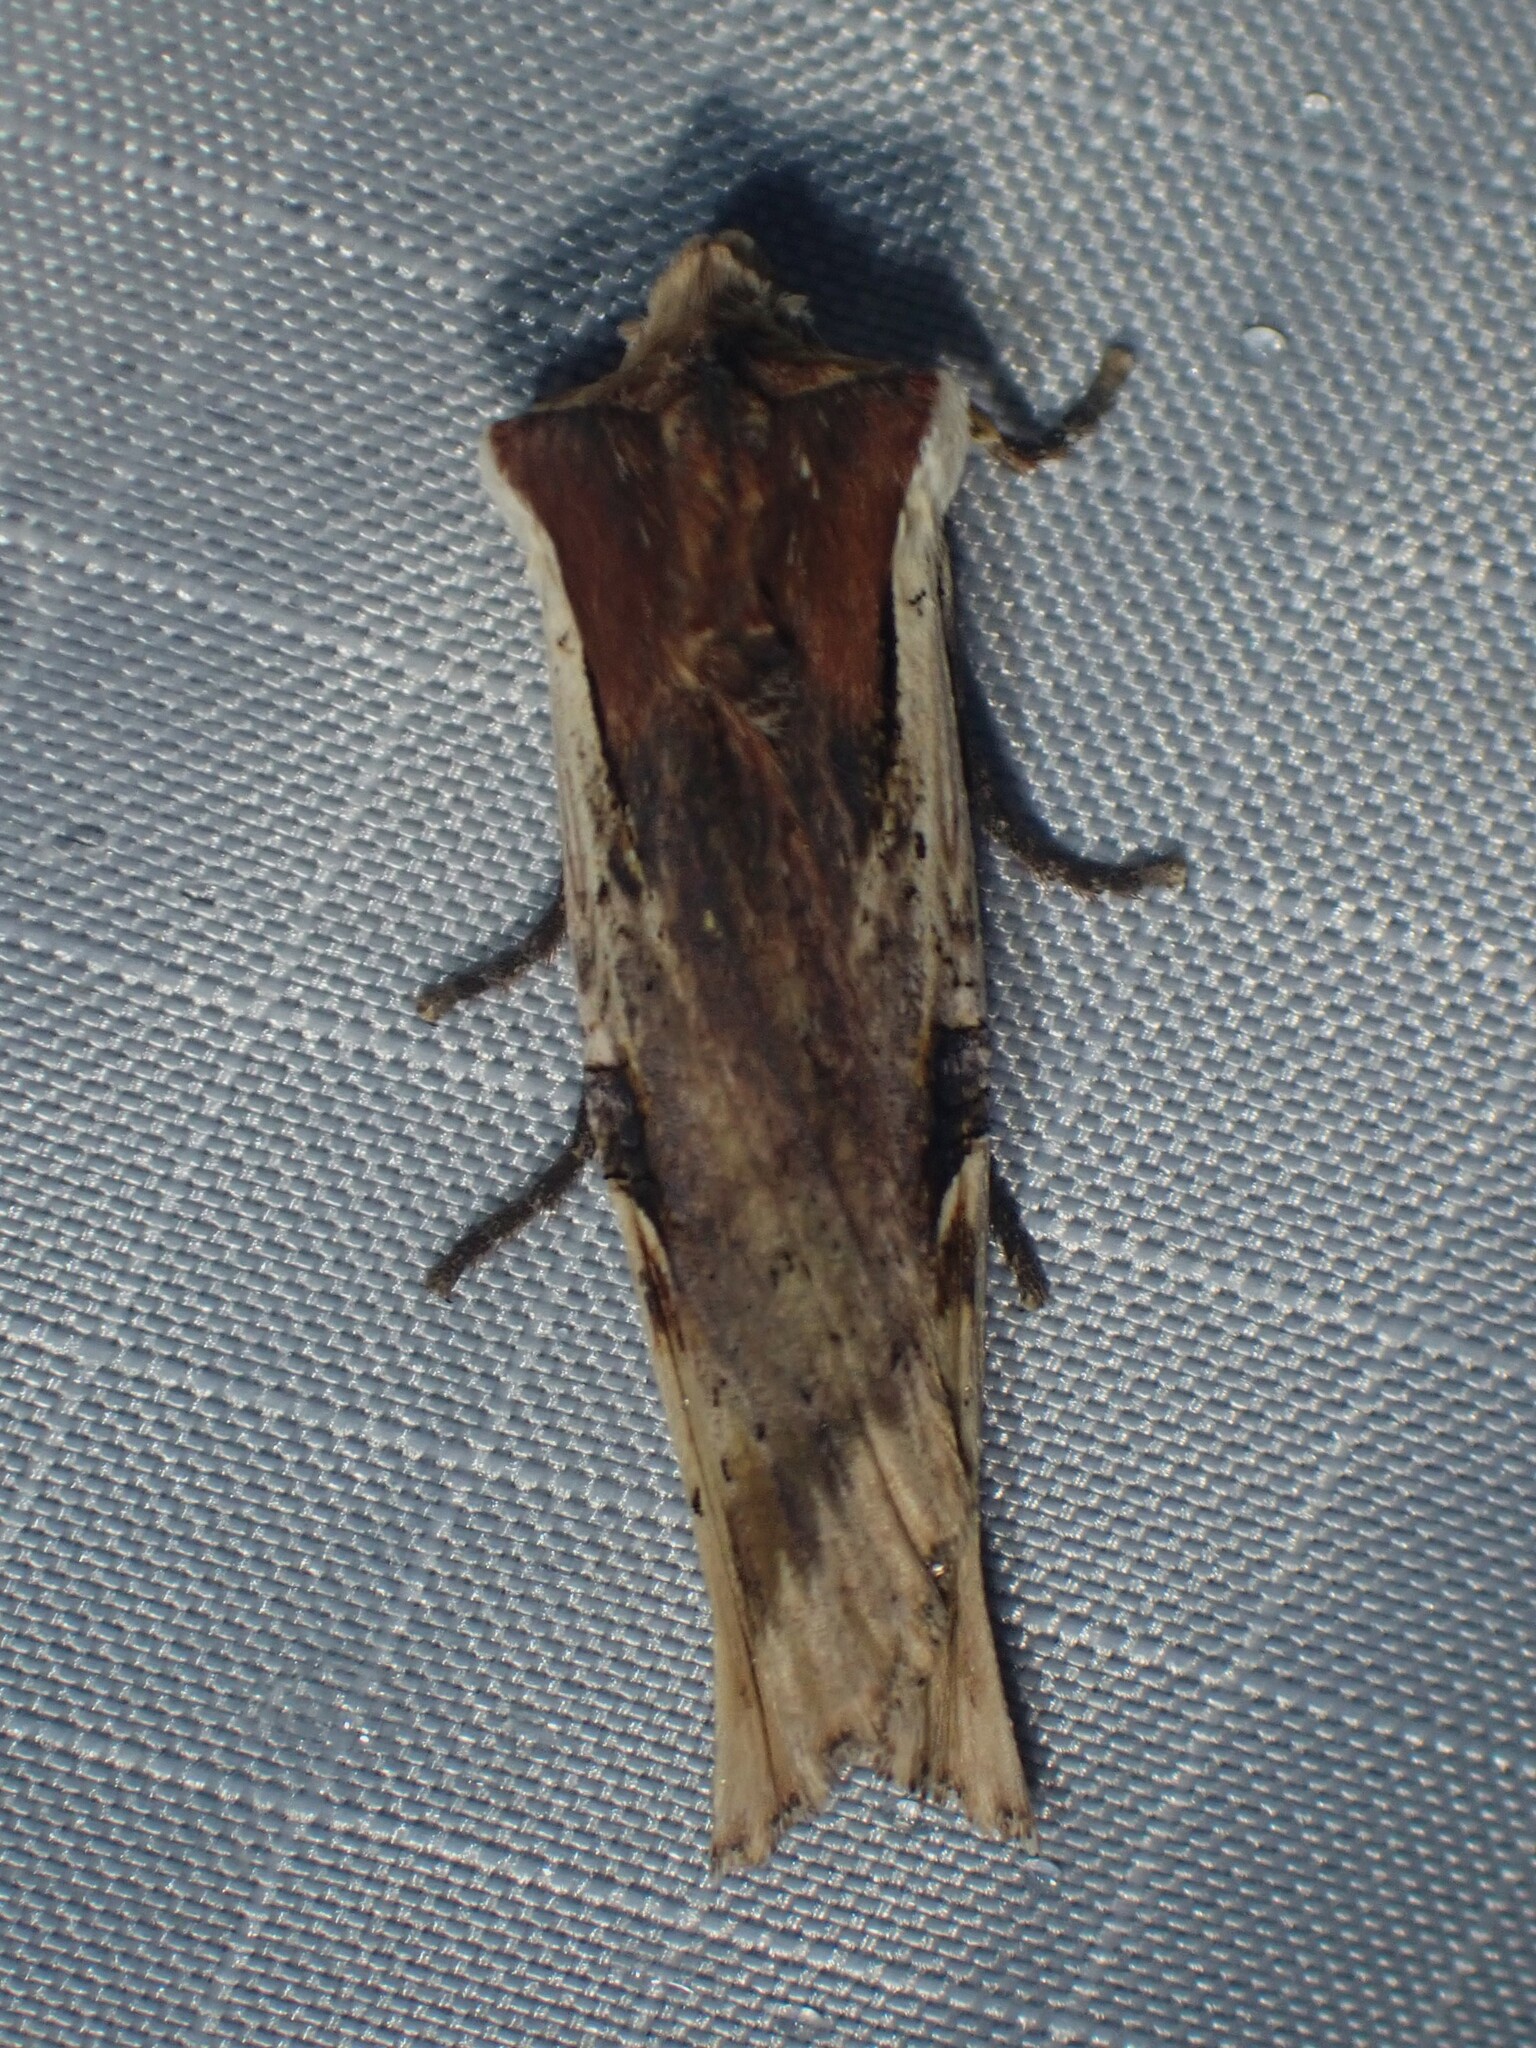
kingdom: Animalia
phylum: Arthropoda
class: Insecta
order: Lepidoptera
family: Noctuidae
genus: Xylena
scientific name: Xylena curvimacula
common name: Dot-and-dash swordgrass moth
